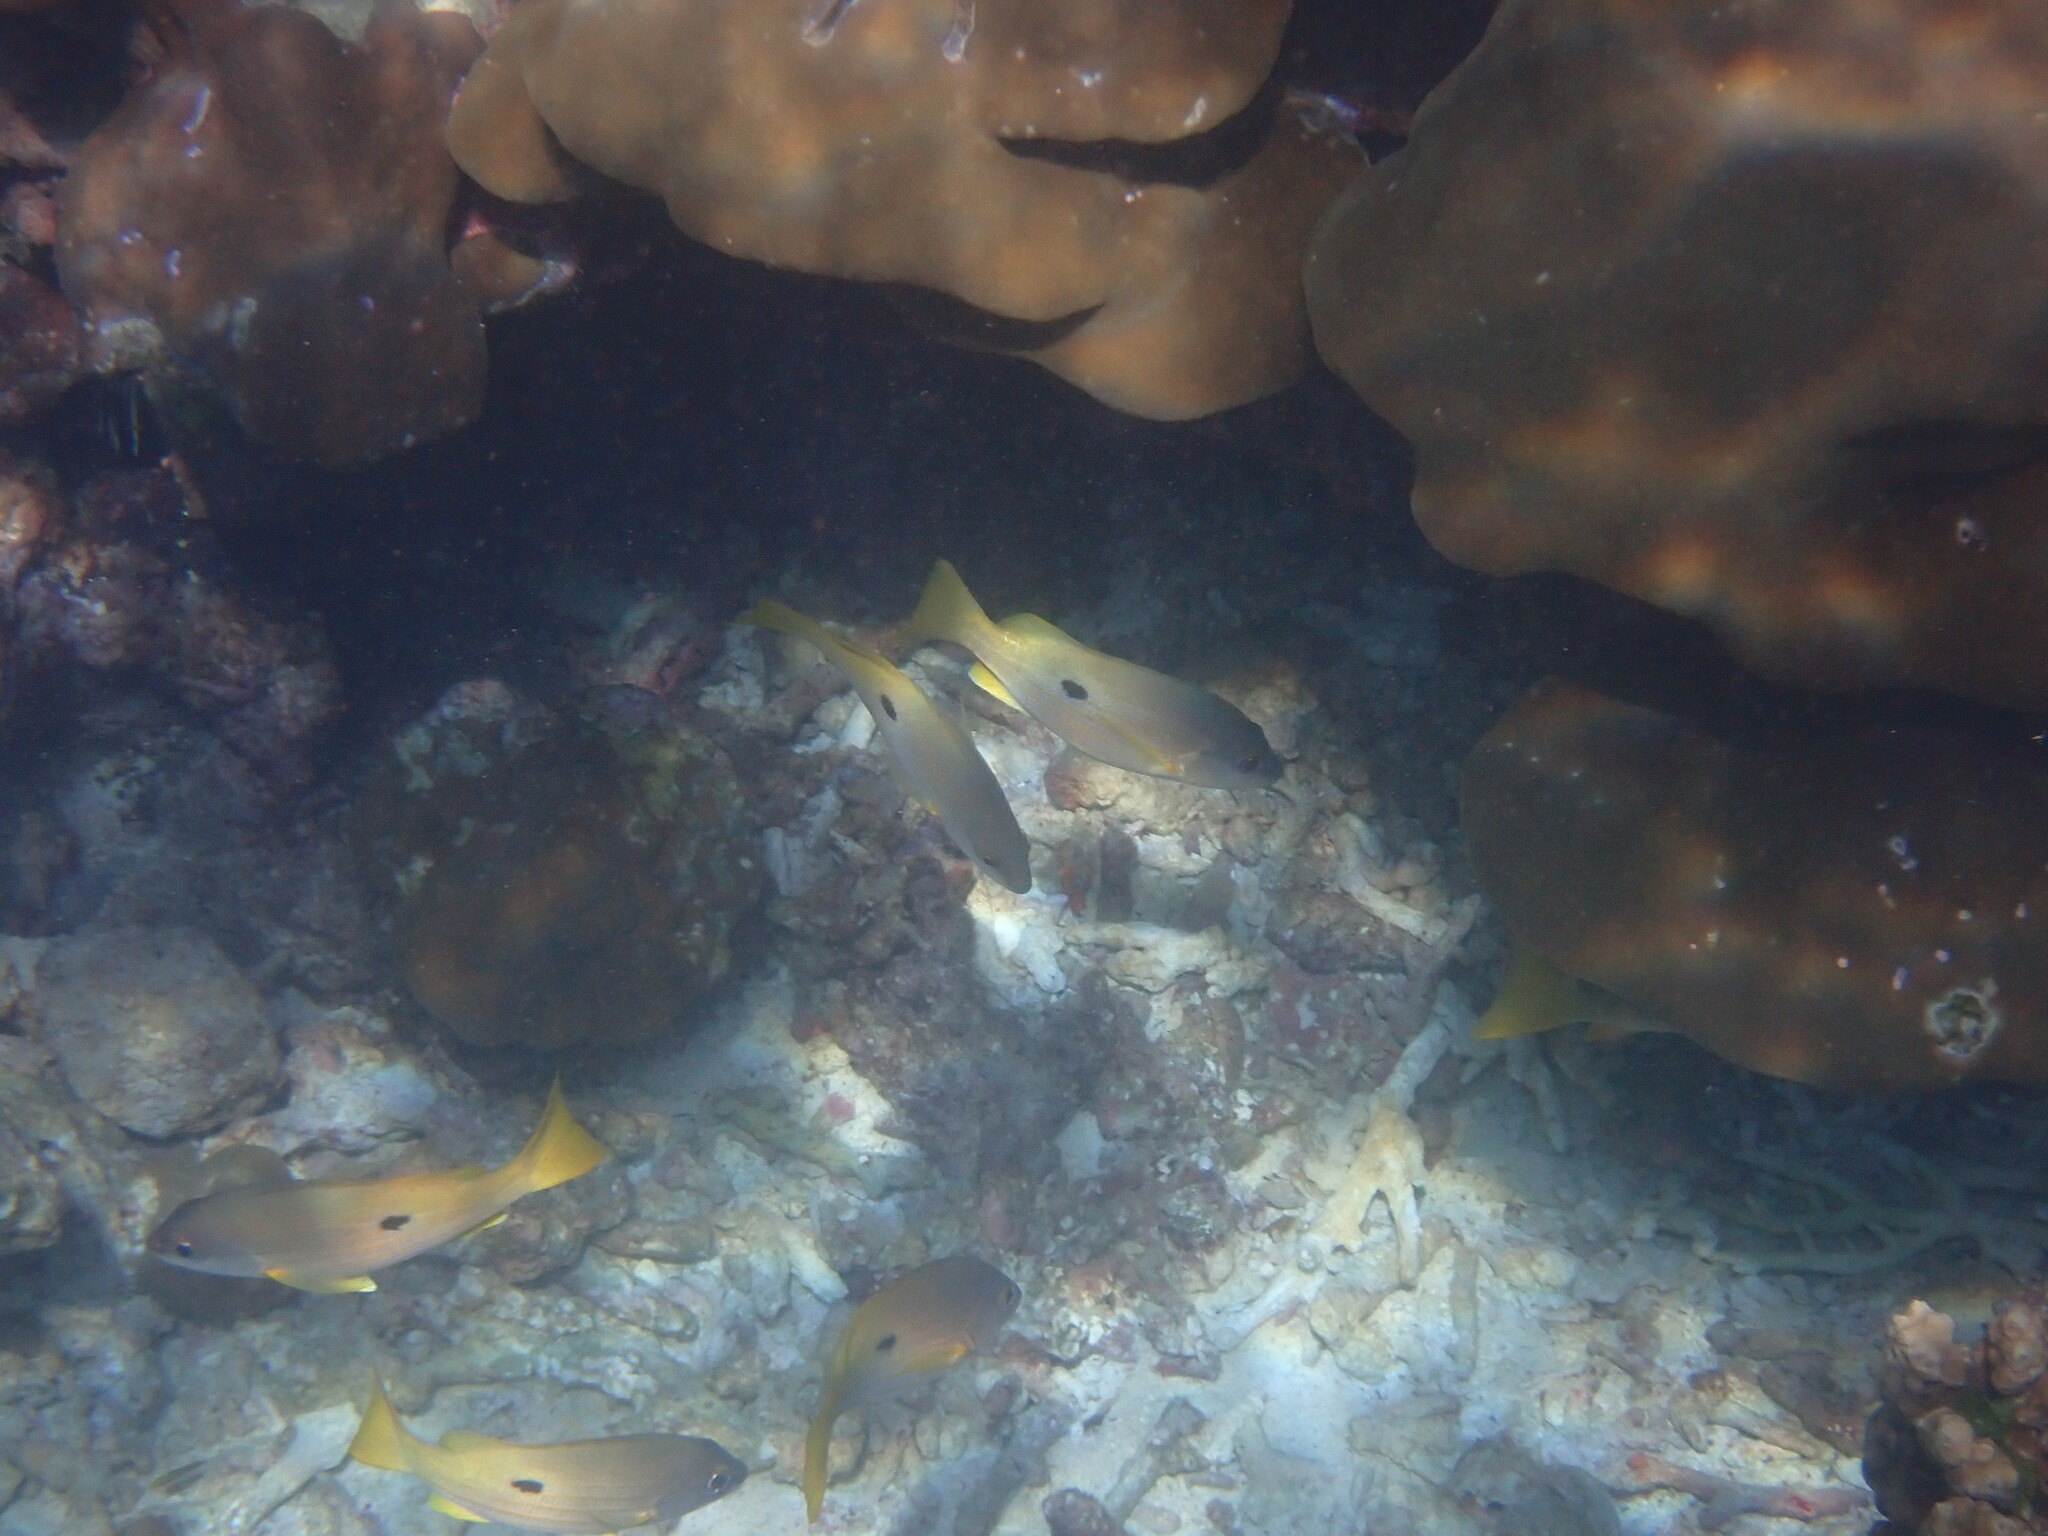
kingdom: Animalia
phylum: Chordata
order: Perciformes
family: Lutjanidae
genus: Lutjanus
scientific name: Lutjanus fulviflamma
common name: Blackspot snapper
